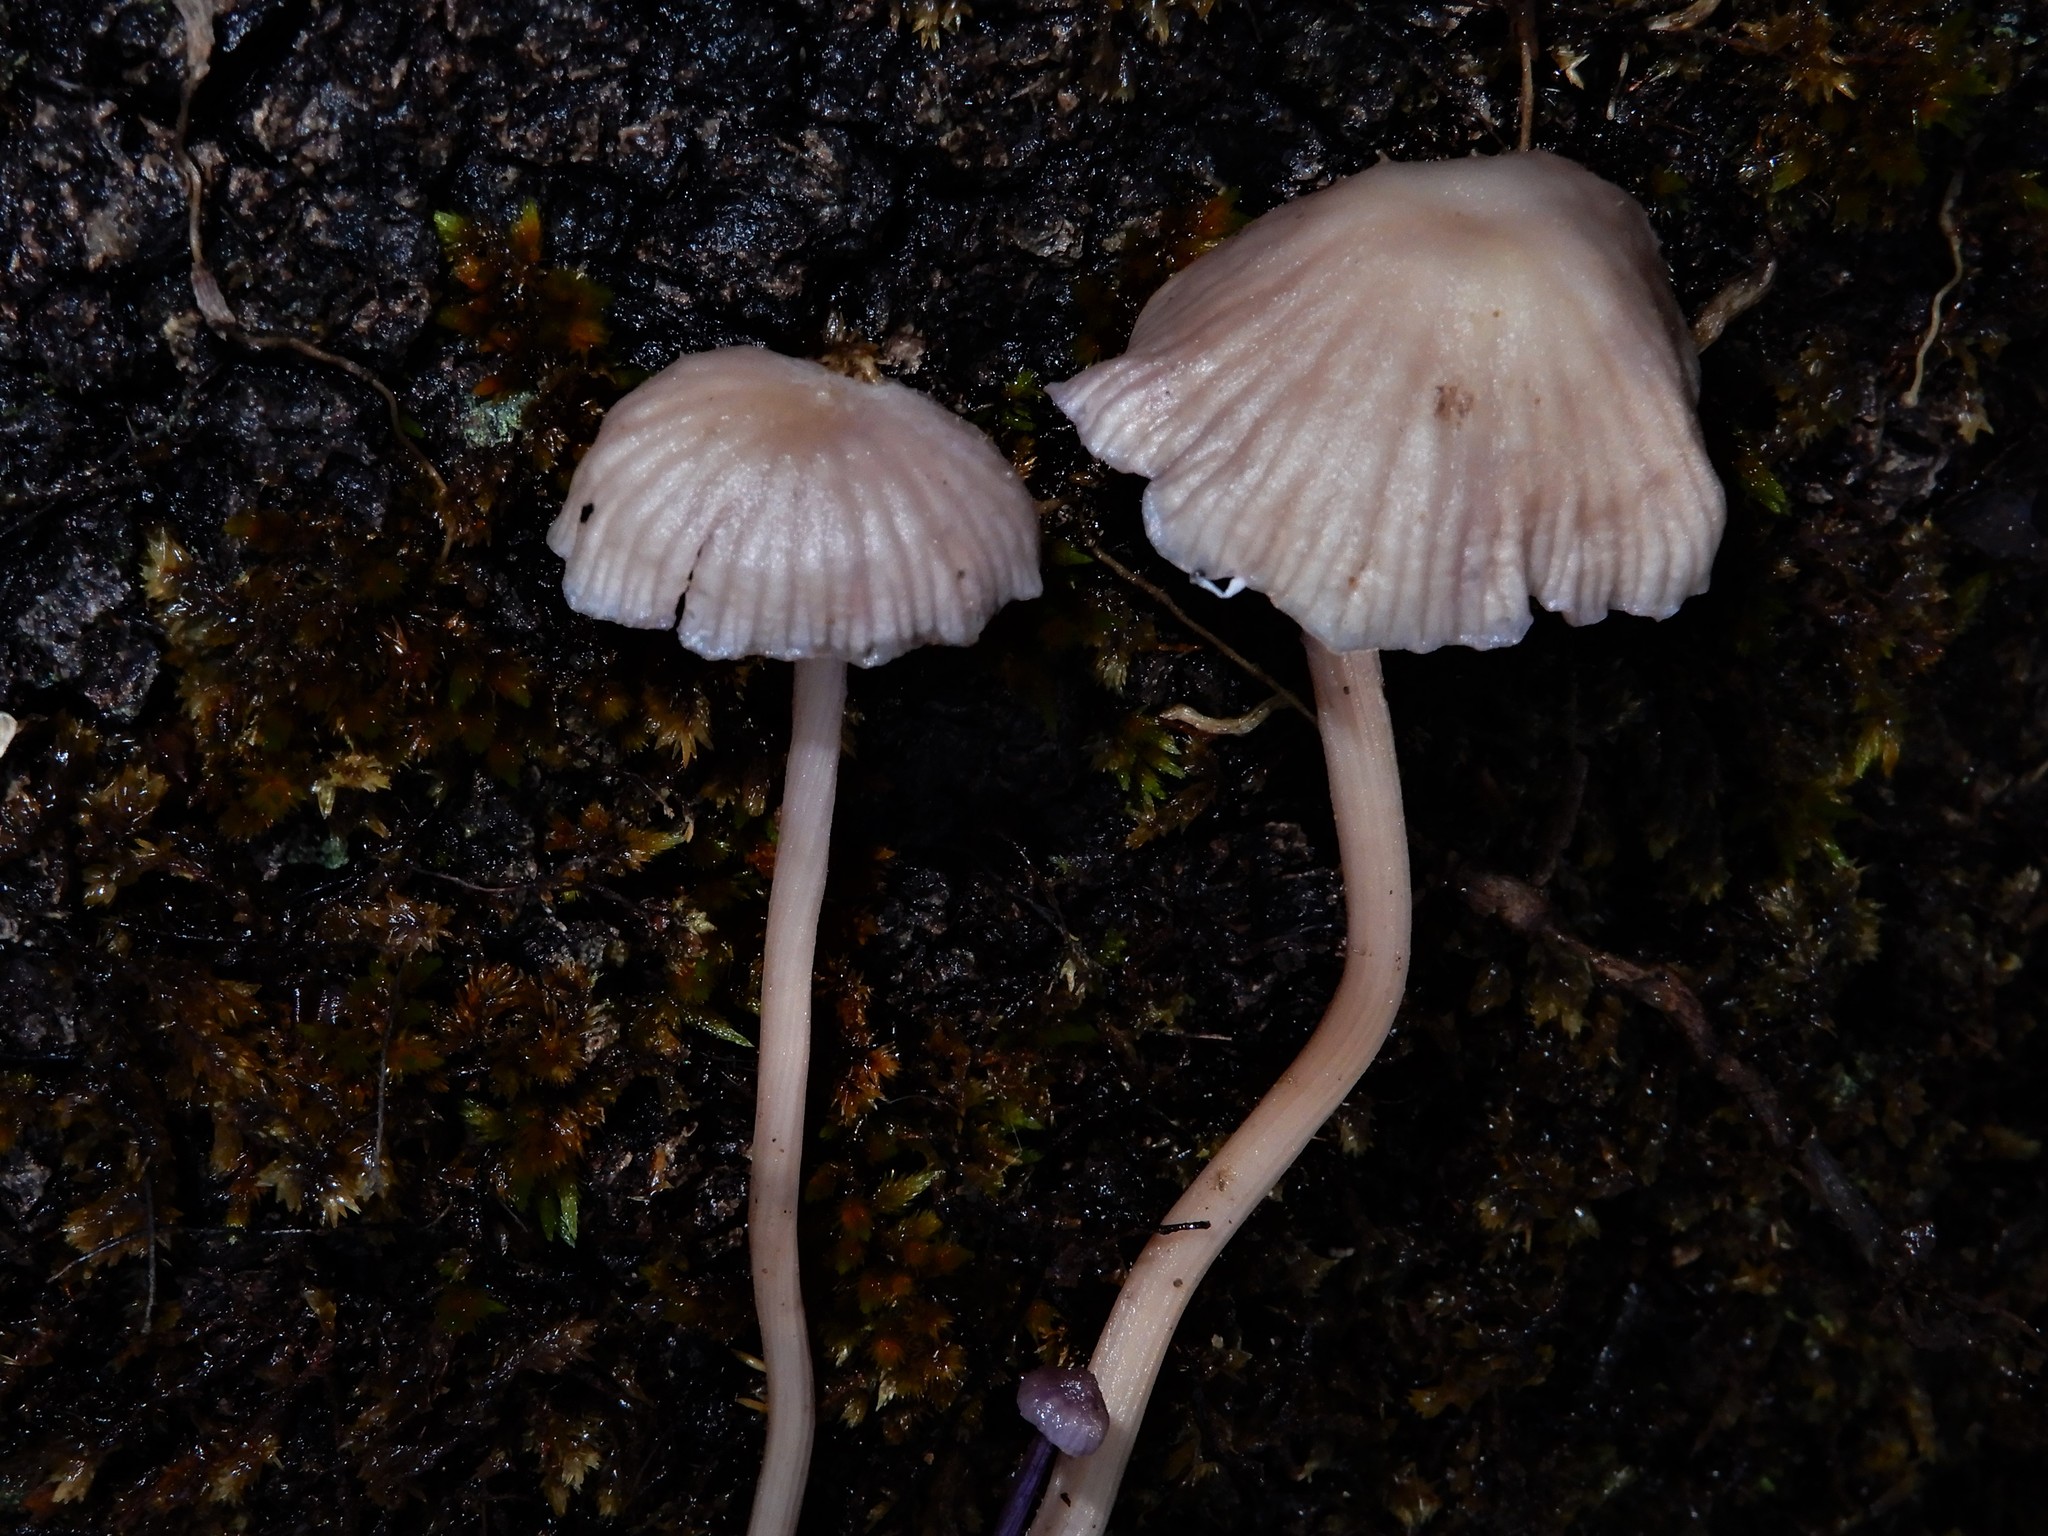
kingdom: Fungi
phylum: Basidiomycota
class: Agaricomycetes
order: Agaricales
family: Hydnangiaceae
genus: Laccaria
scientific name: Laccaria masoniae
